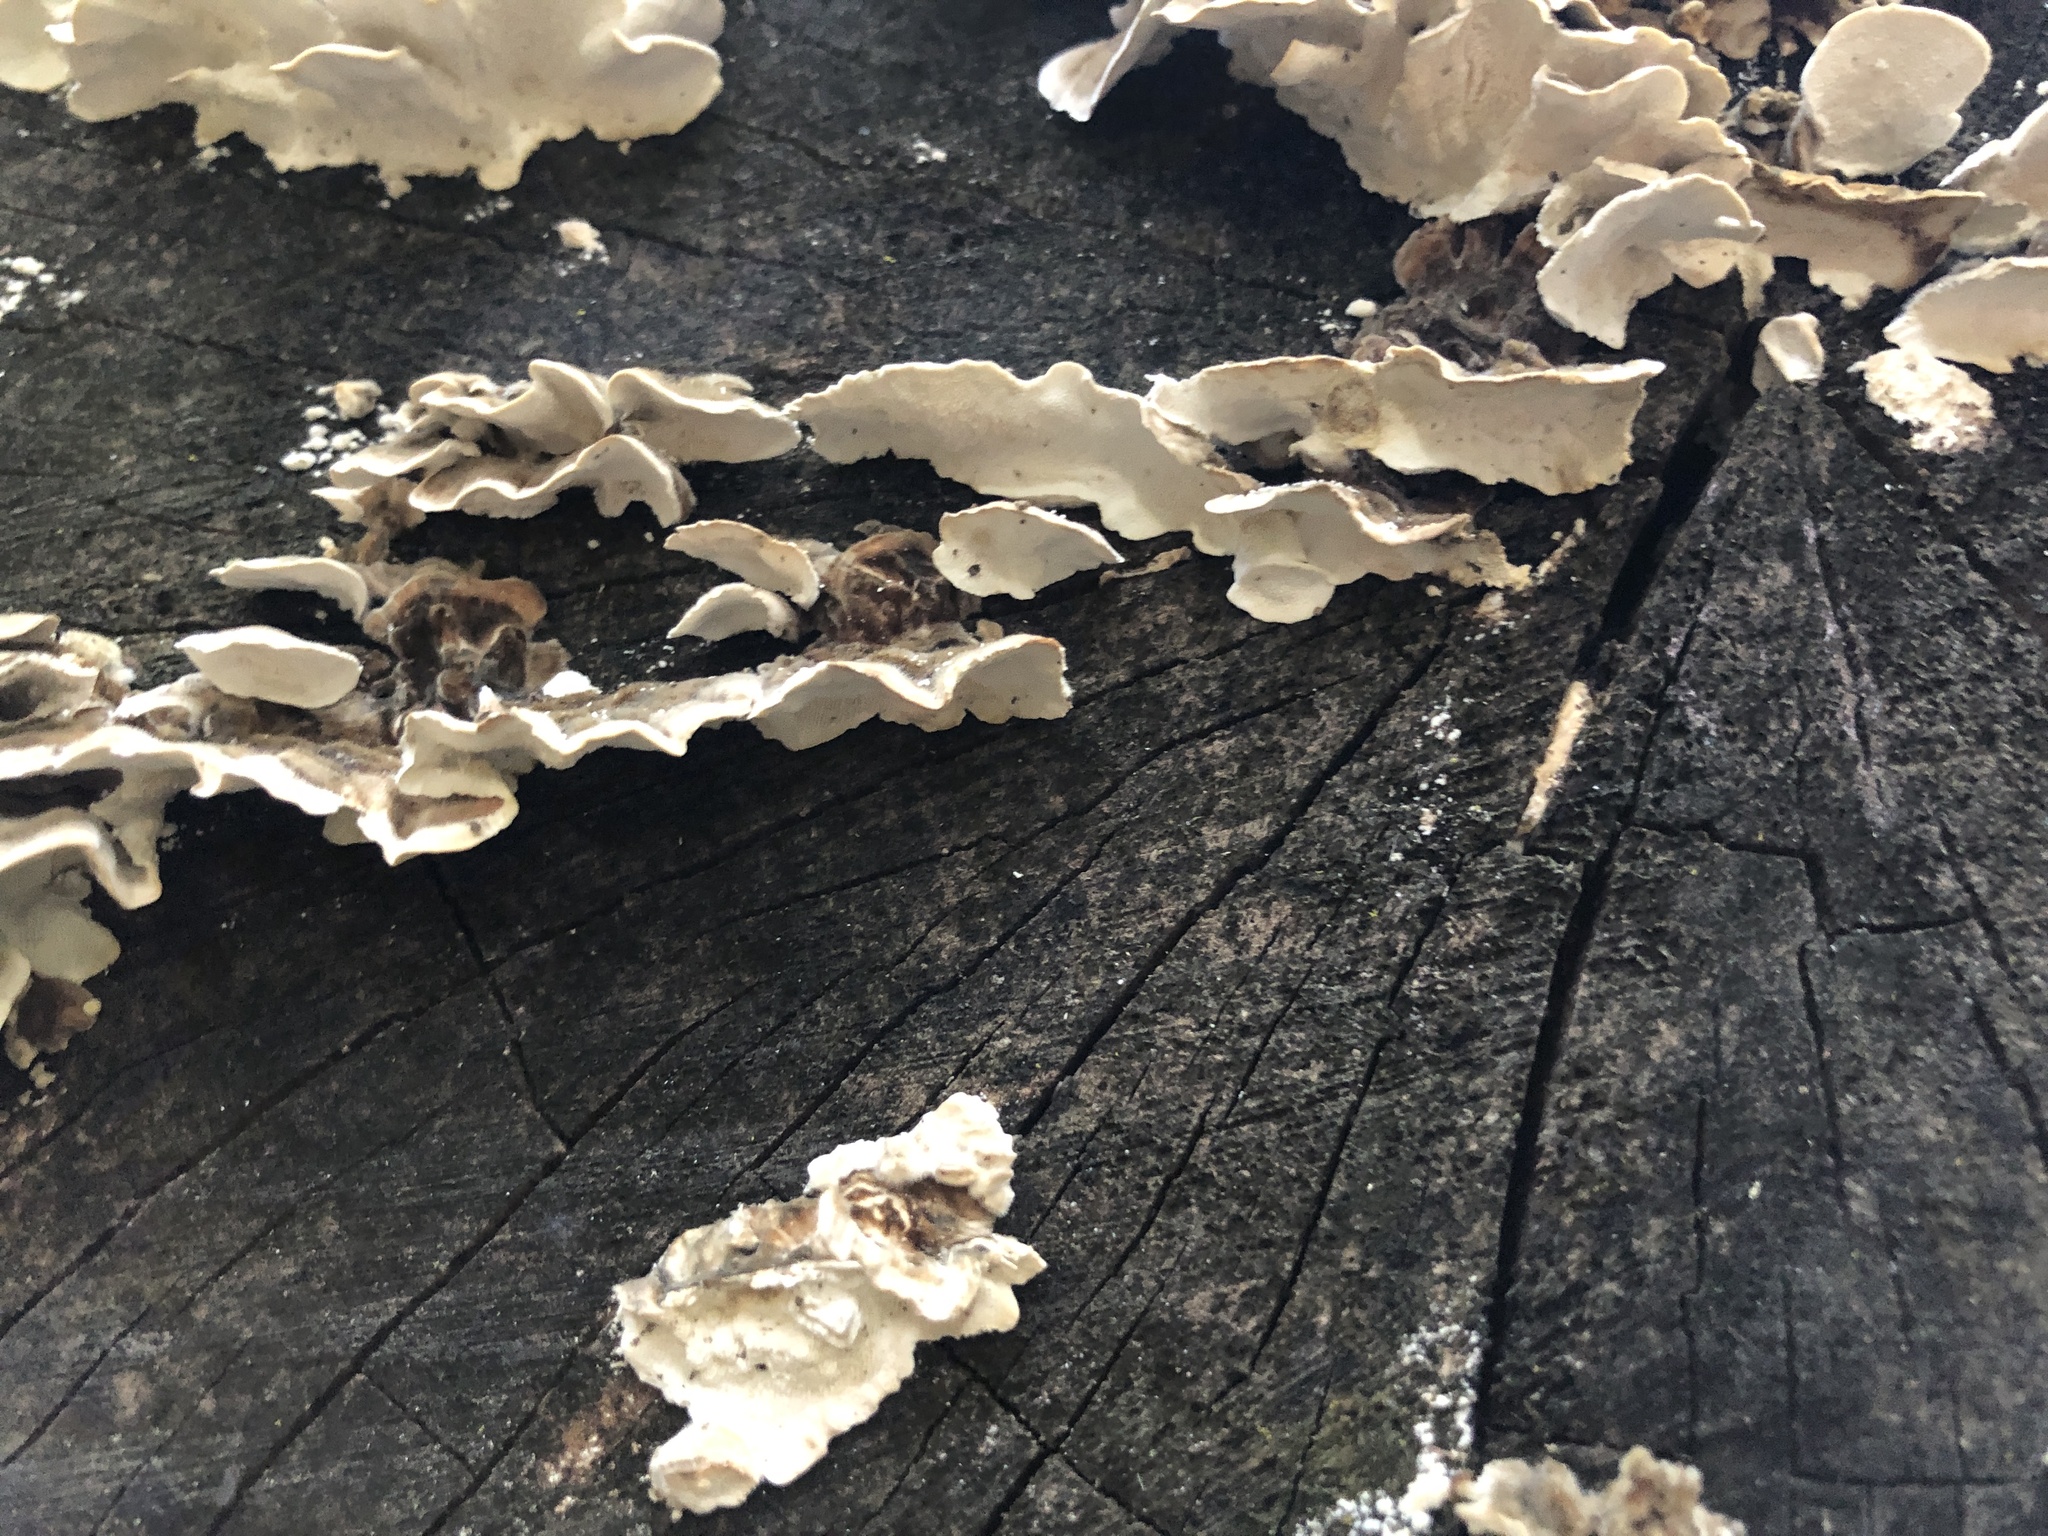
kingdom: Fungi
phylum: Basidiomycota
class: Agaricomycetes
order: Polyporales
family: Polyporaceae
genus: Trametes
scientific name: Trametes versicolor
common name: Turkeytail
